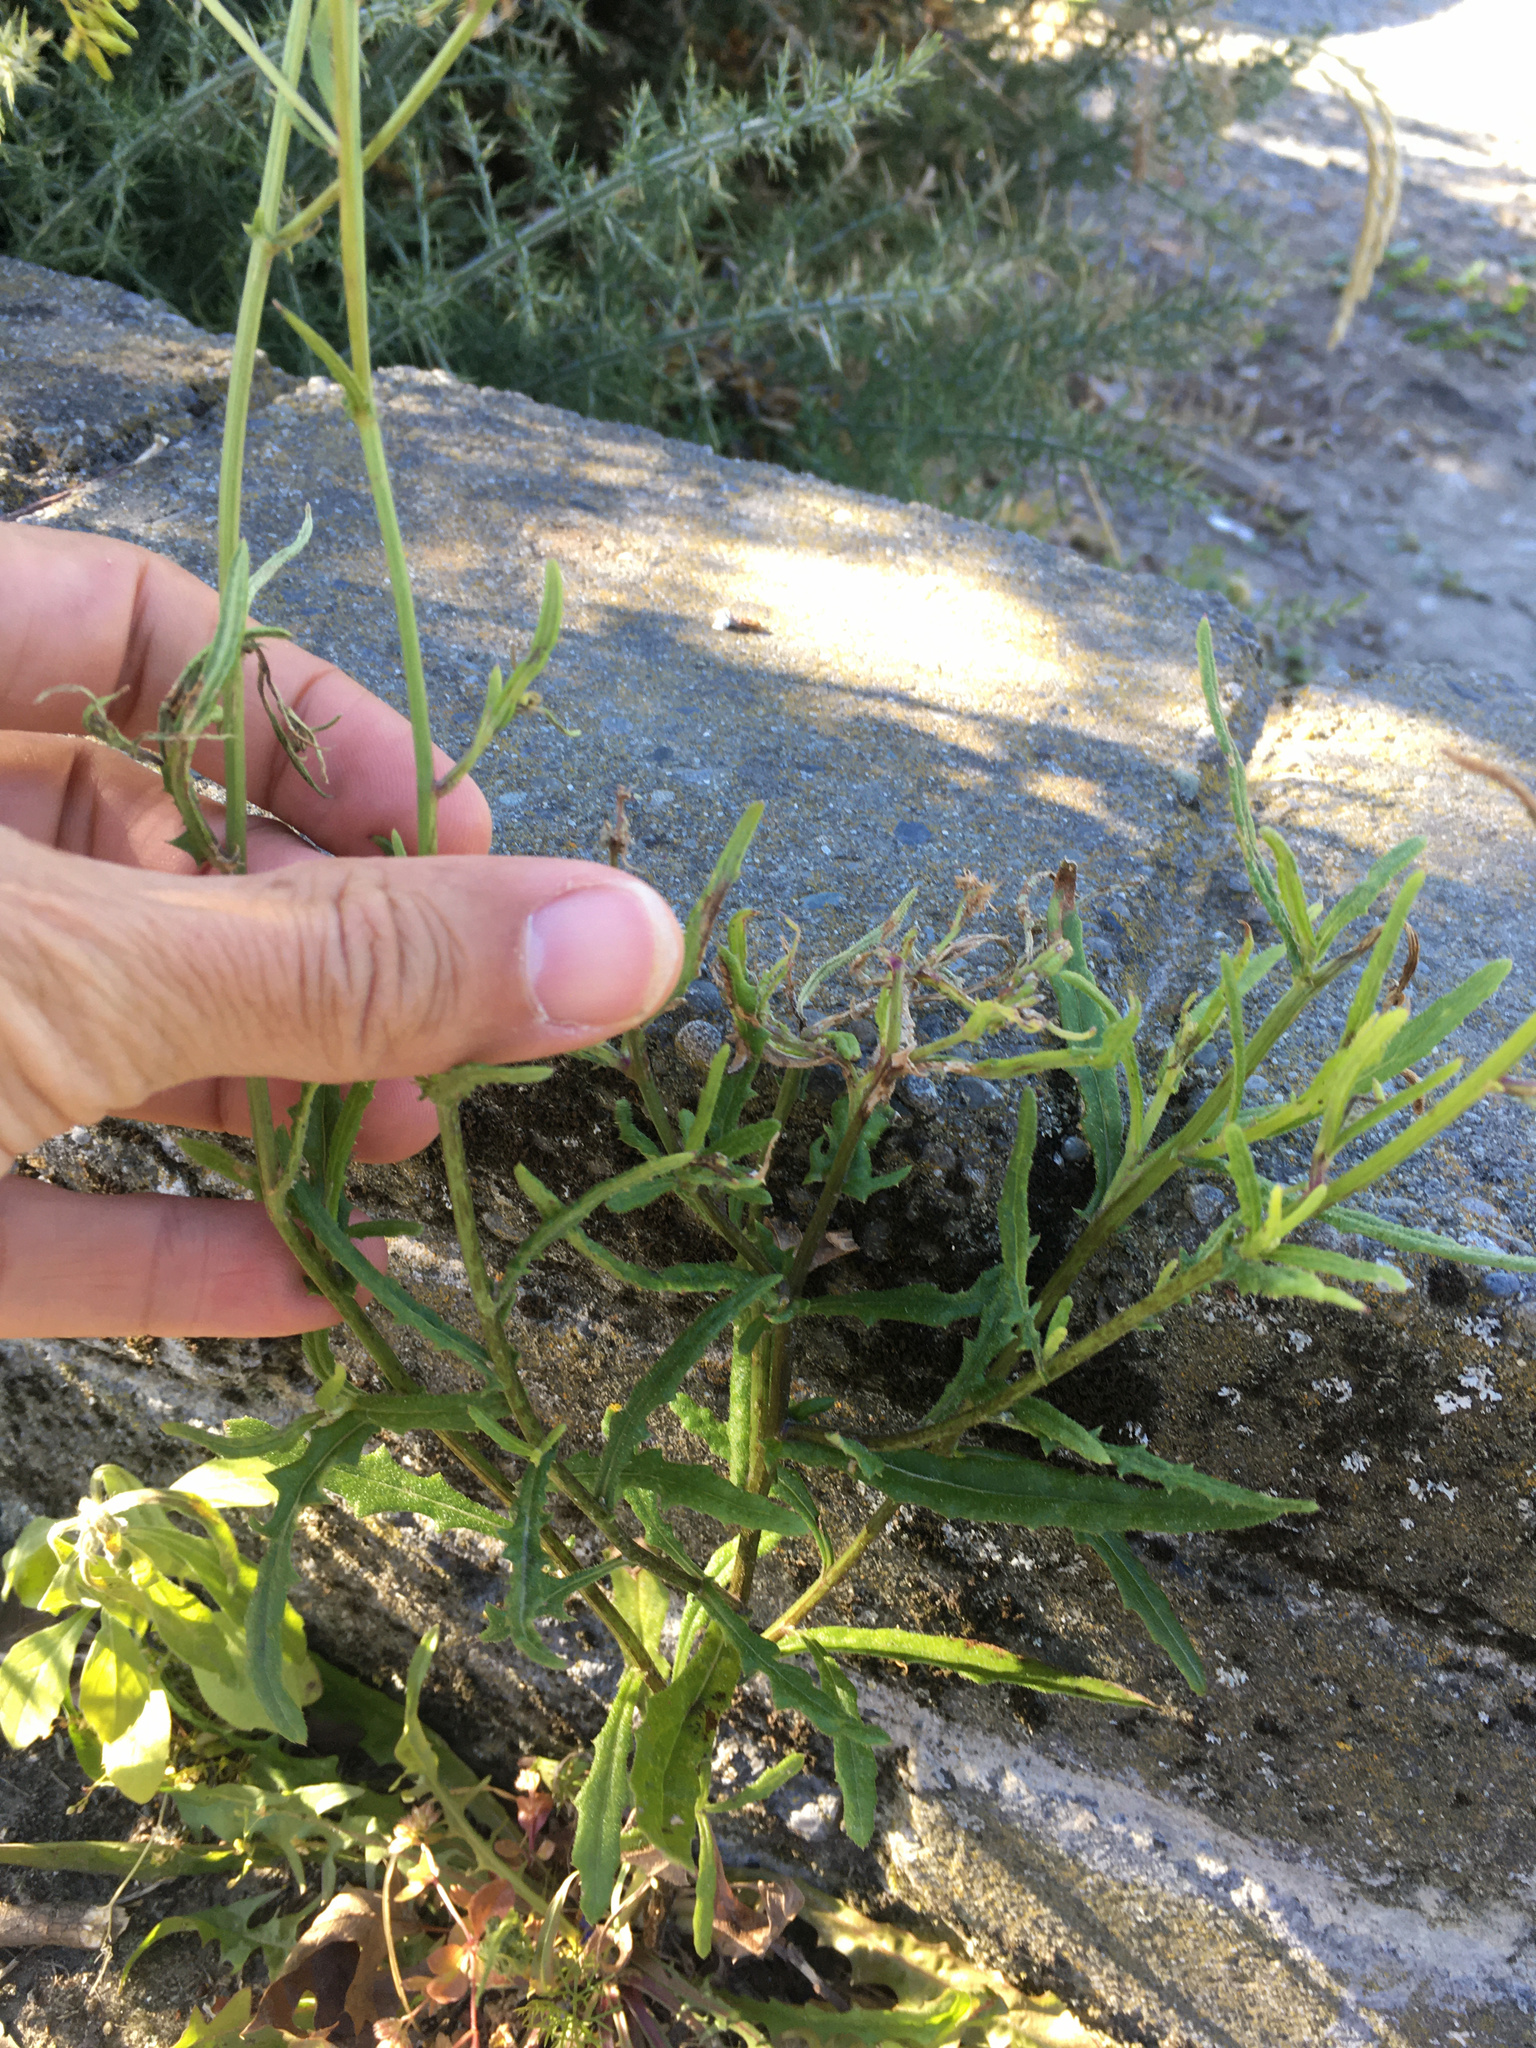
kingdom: Plantae
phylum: Tracheophyta
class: Magnoliopsida
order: Asterales
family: Asteraceae
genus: Senecio
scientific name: Senecio hispidulus
